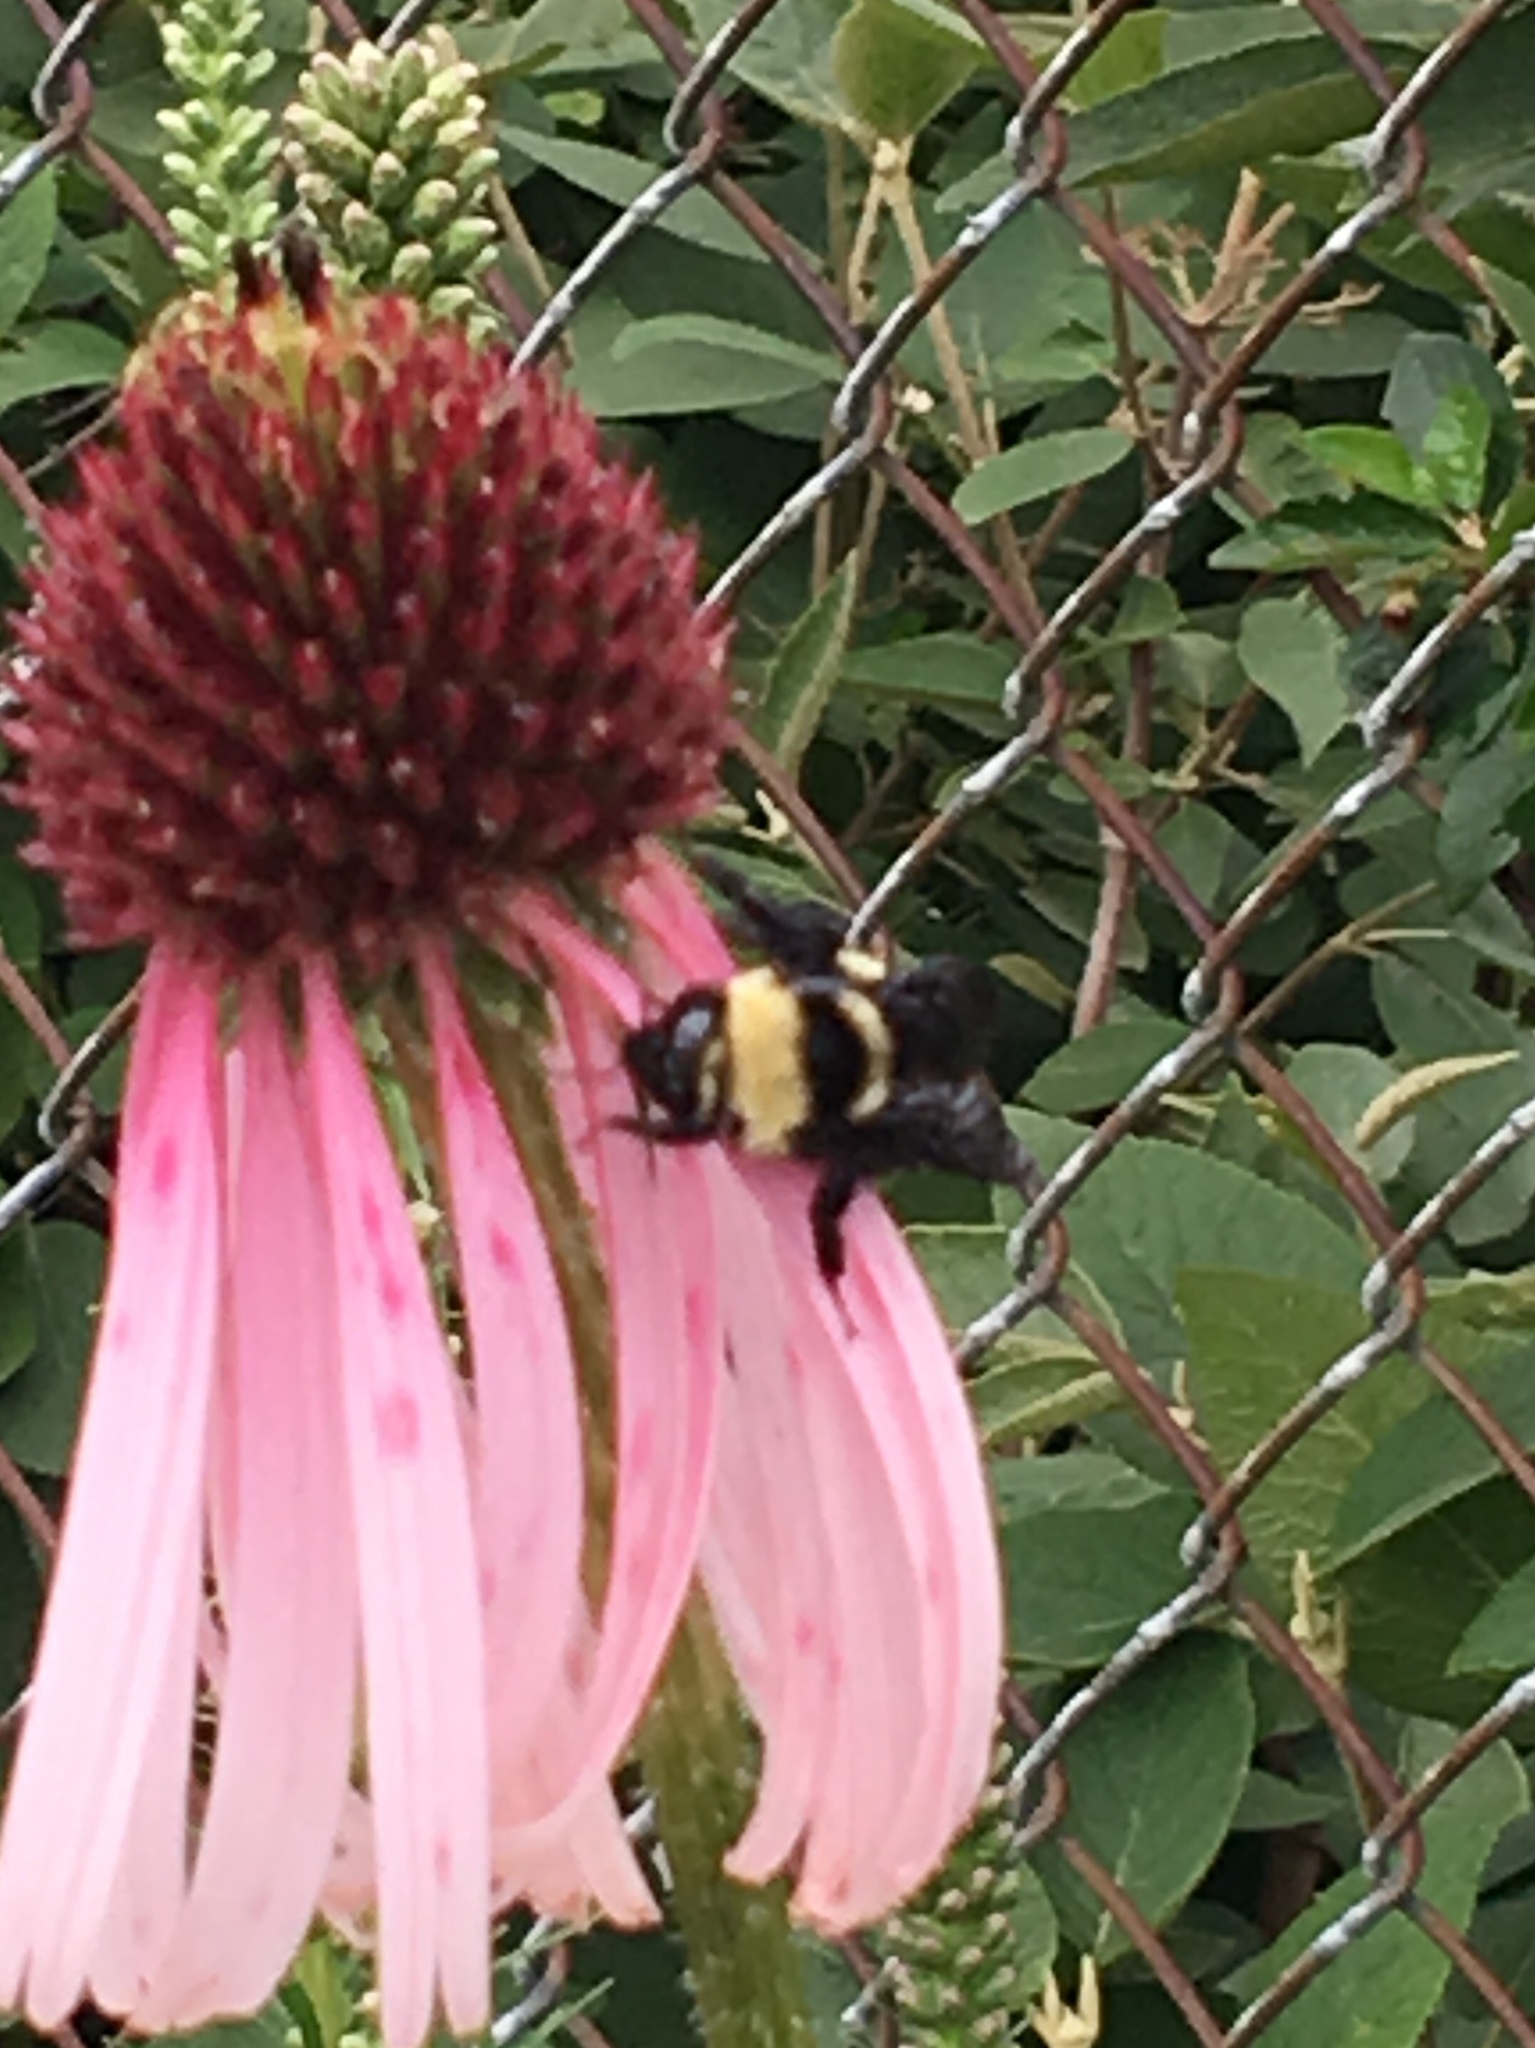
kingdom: Animalia
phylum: Arthropoda
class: Insecta
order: Hymenoptera
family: Apidae
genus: Bombus
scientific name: Bombus auricomus
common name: Black and gold bumble bee
